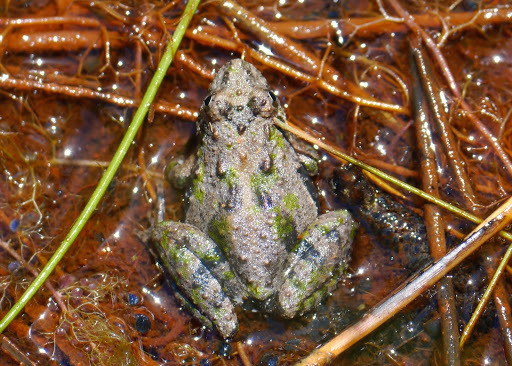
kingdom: Animalia
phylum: Chordata
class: Amphibia
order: Anura
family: Hylidae
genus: Acris
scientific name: Acris crepitans
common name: Northern cricket frog
